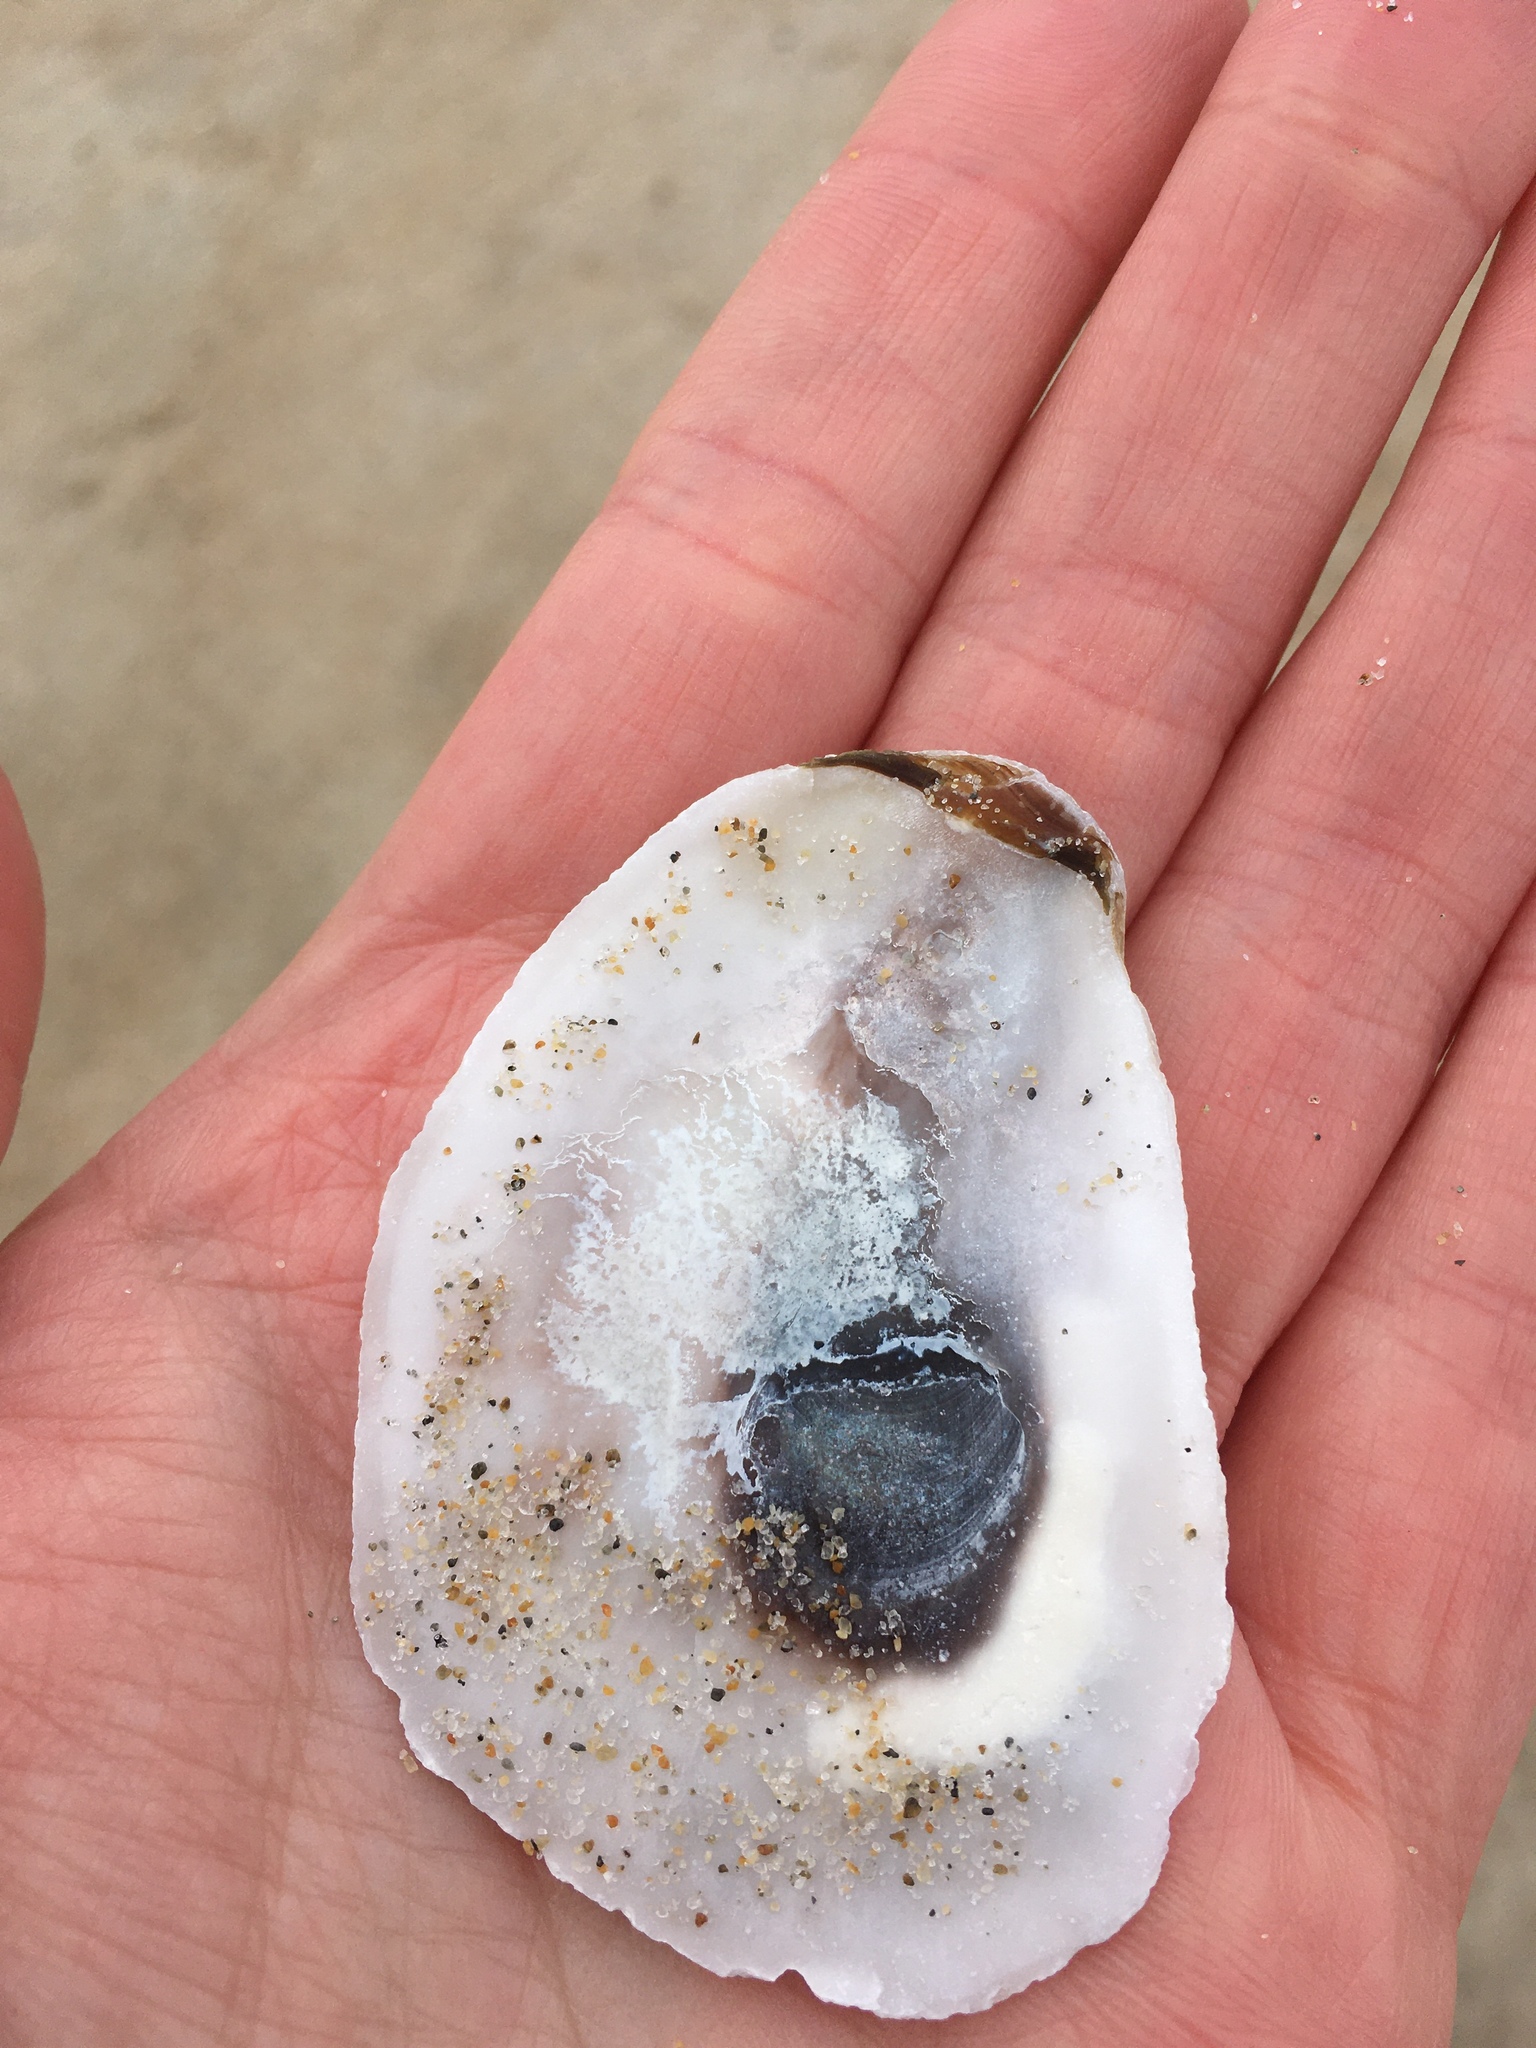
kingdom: Animalia
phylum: Mollusca
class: Bivalvia
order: Ostreida
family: Ostreidae
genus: Crassostrea
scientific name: Crassostrea virginica
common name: American oyster
